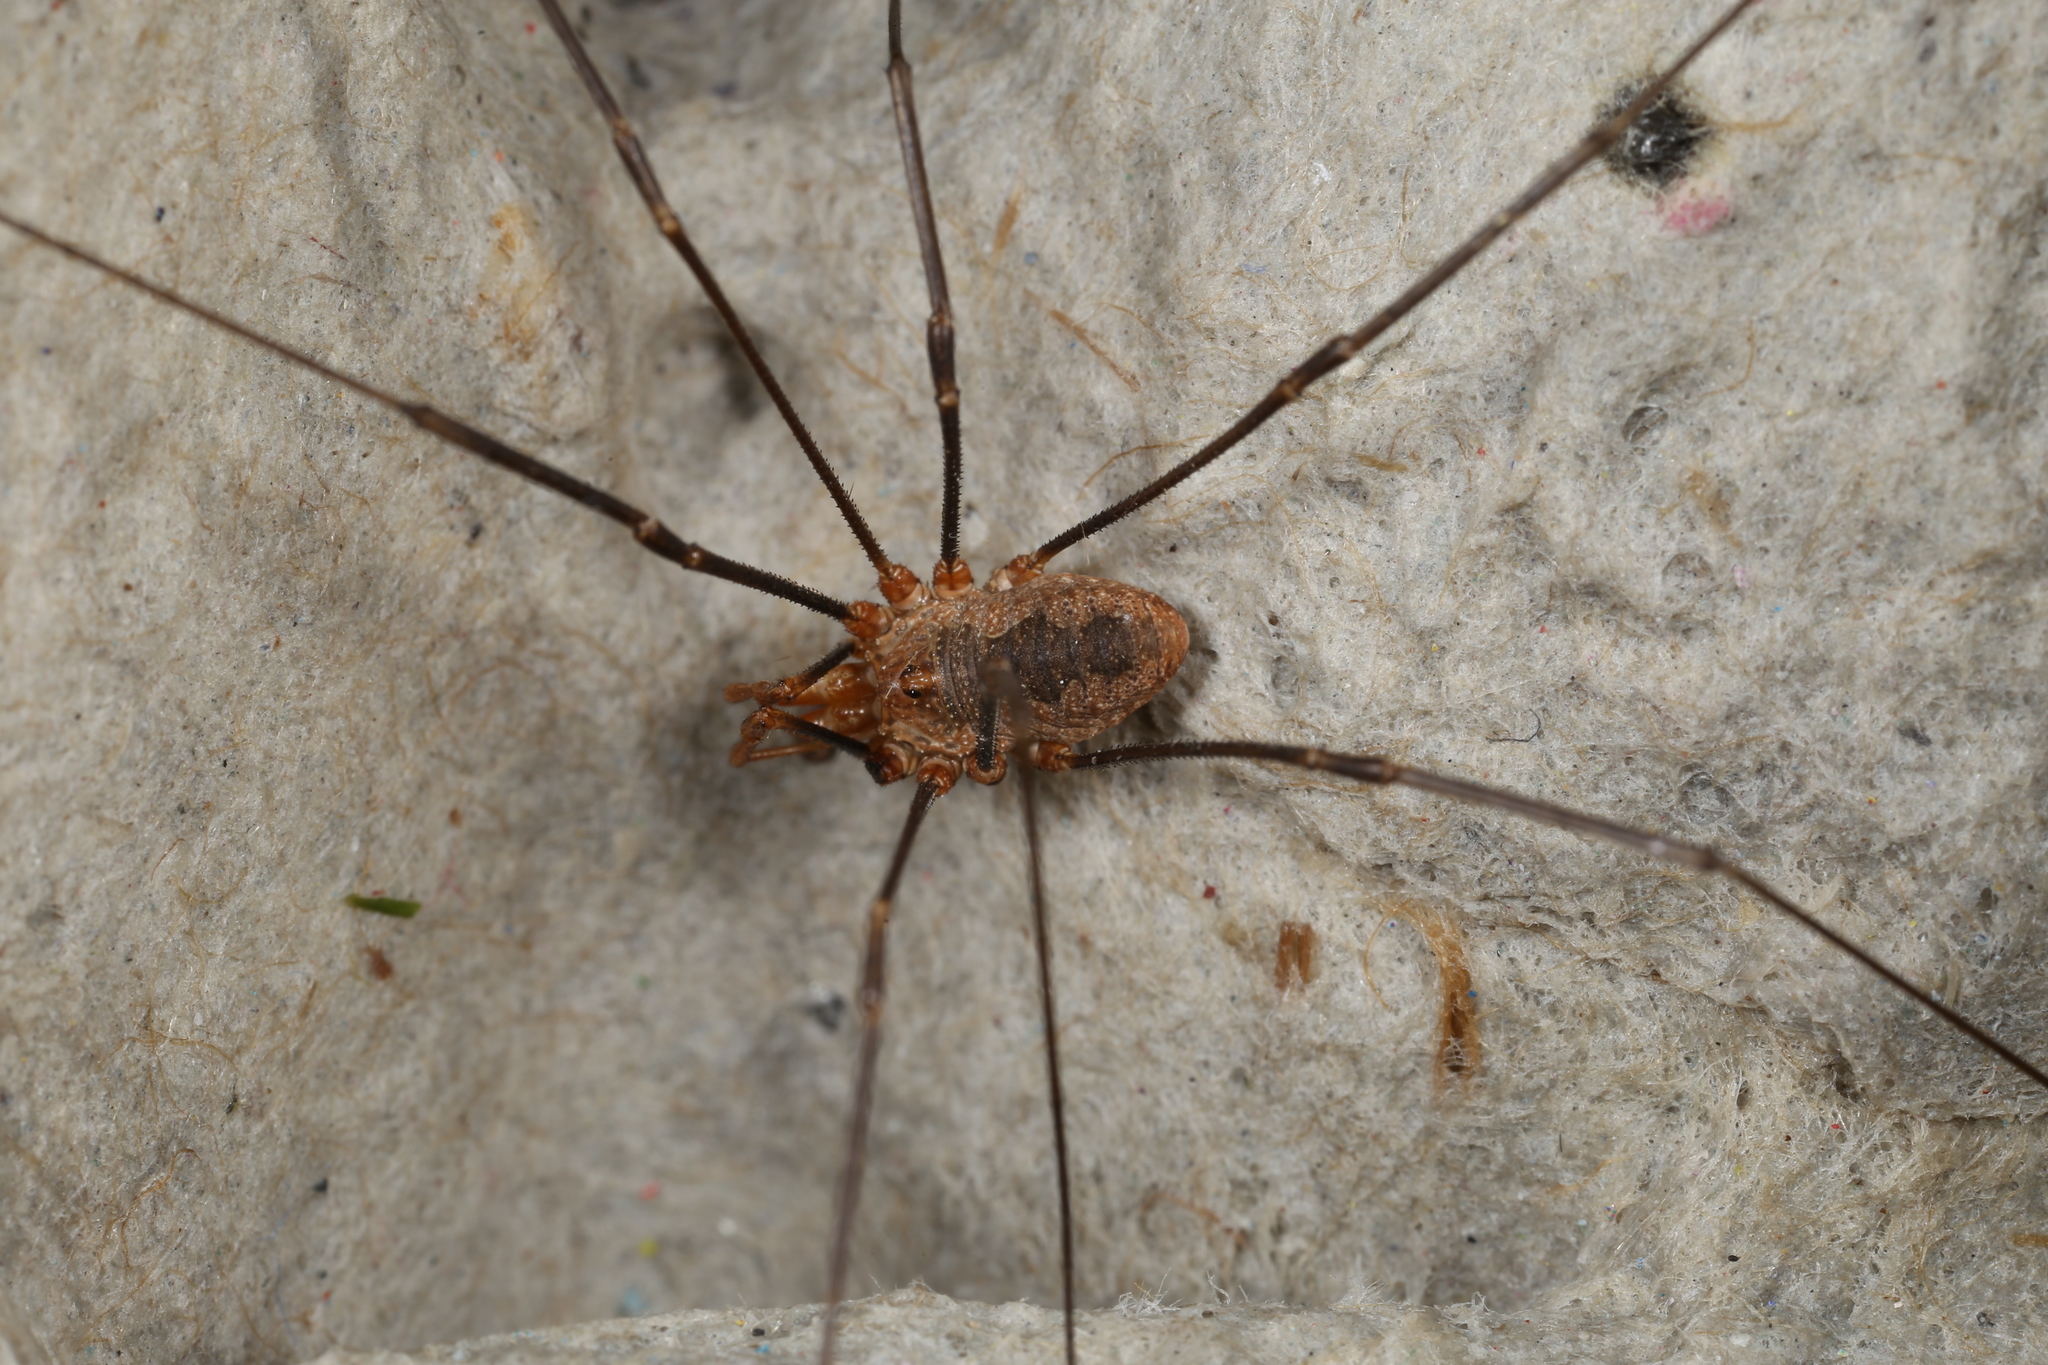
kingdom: Animalia
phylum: Arthropoda
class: Arachnida
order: Opiliones
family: Phalangiidae
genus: Phalangium
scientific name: Phalangium opilio
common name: Daddy longleg
